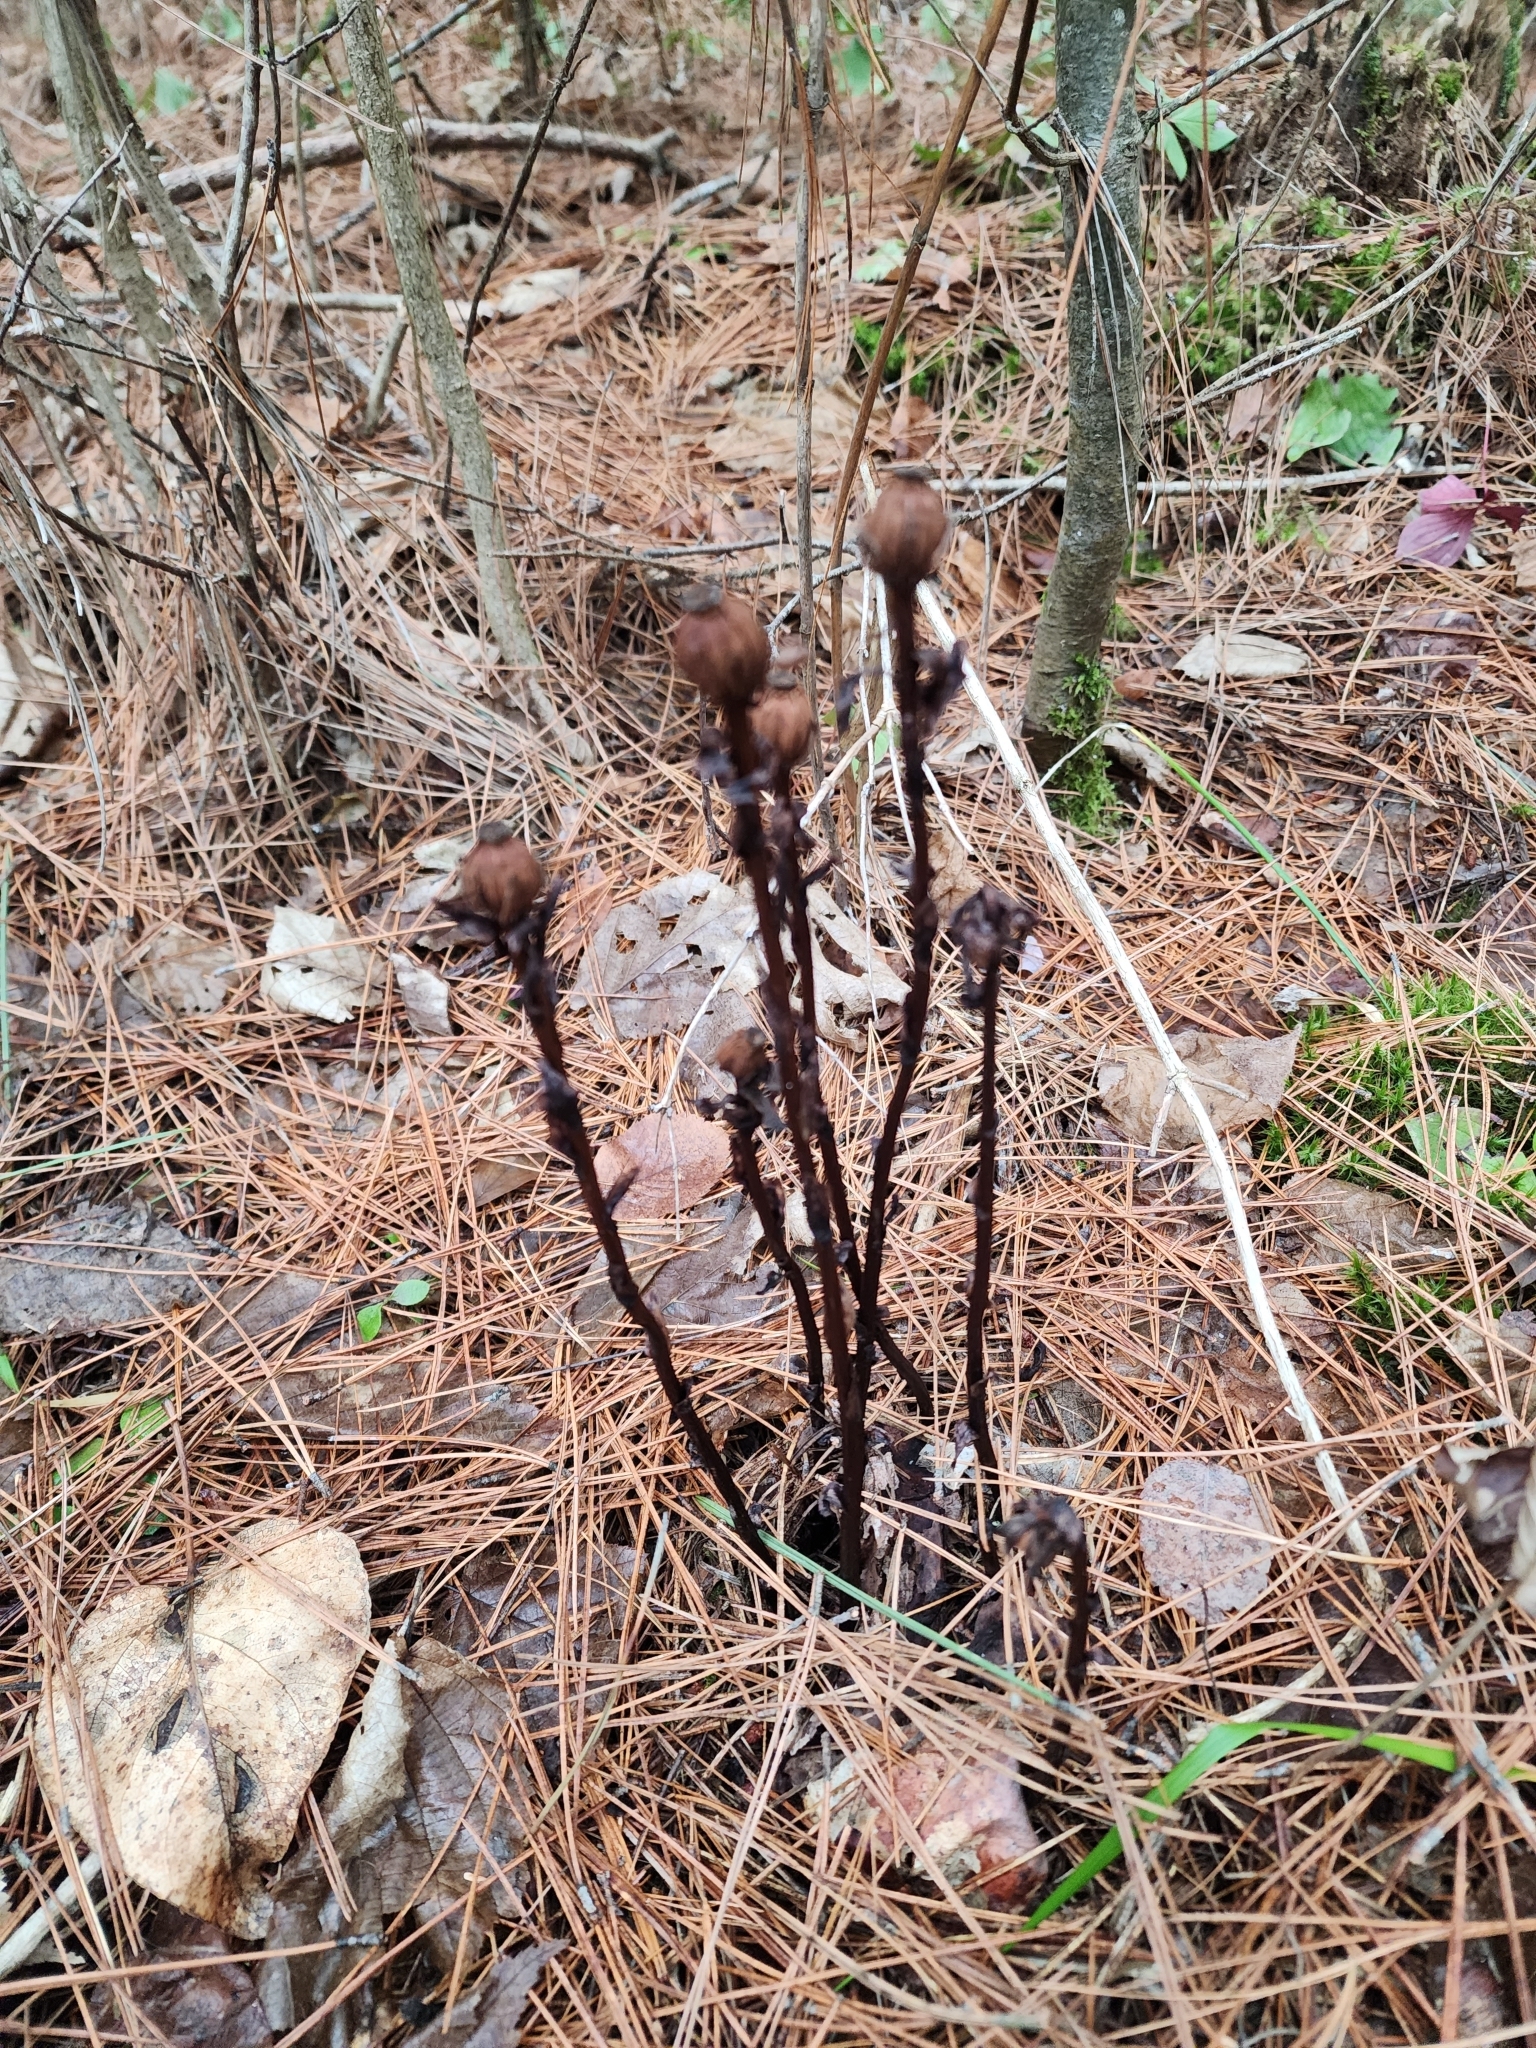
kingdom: Plantae
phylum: Tracheophyta
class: Magnoliopsida
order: Ericales
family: Ericaceae
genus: Monotropa
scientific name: Monotropa uniflora
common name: Convulsion root
